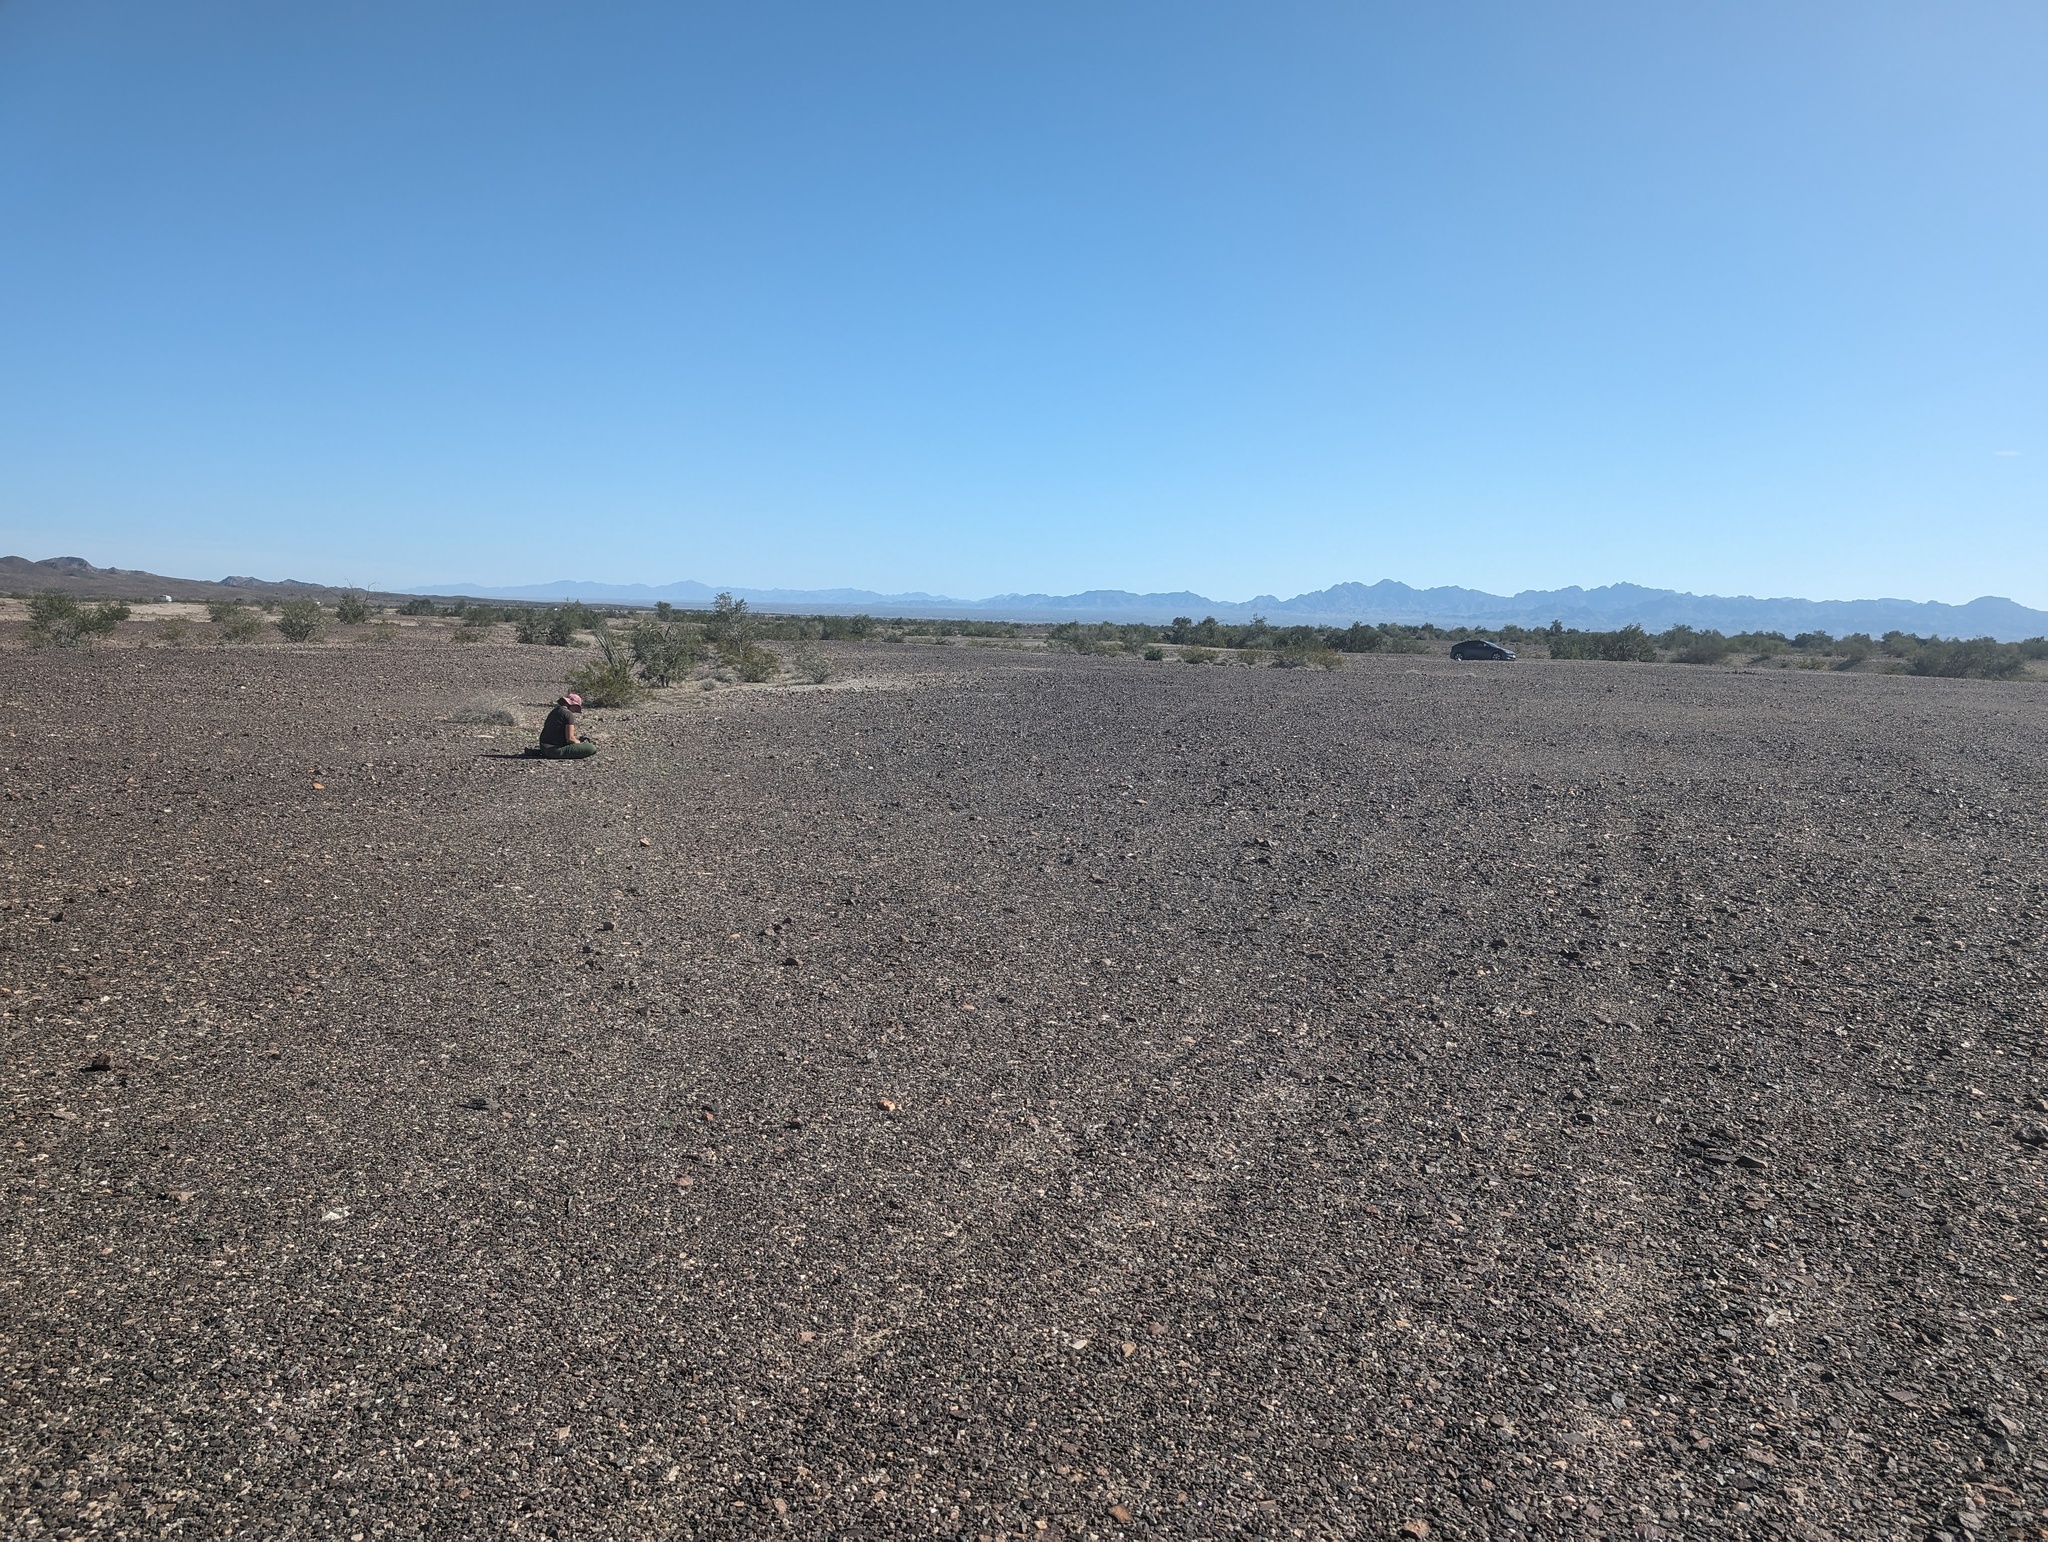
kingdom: Plantae
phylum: Tracheophyta
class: Magnoliopsida
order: Boraginales
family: Hydrophyllaceae
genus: Phacelia
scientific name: Phacelia neglecta
